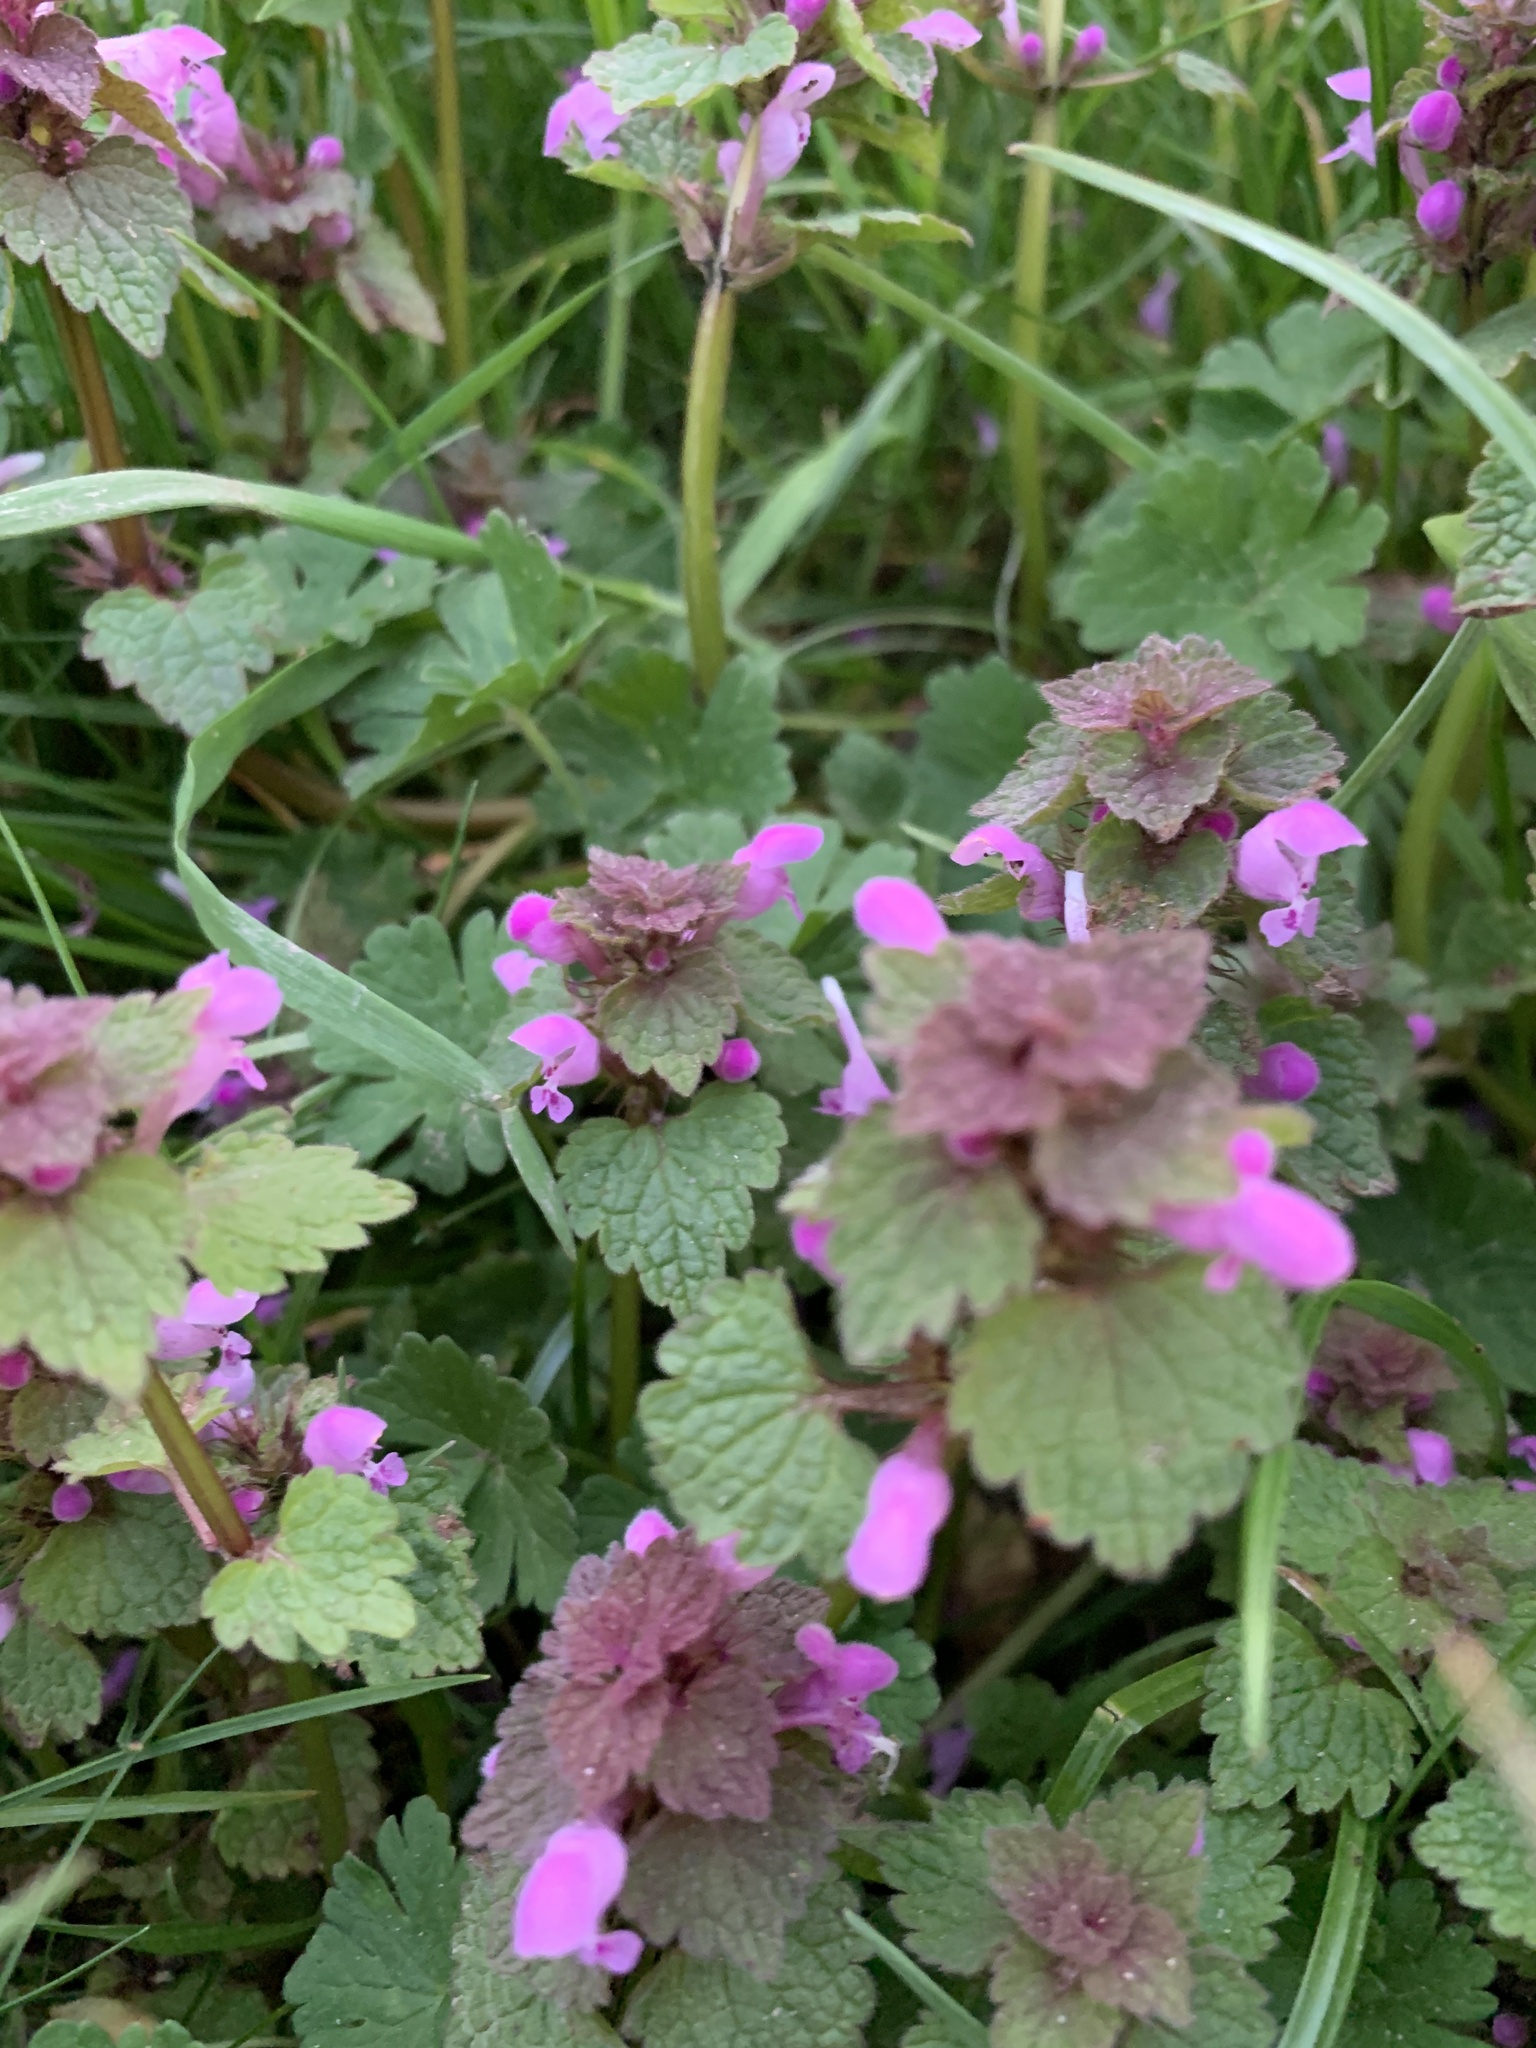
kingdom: Plantae
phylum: Tracheophyta
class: Magnoliopsida
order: Lamiales
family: Lamiaceae
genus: Lamium
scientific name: Lamium purpureum
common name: Red dead-nettle
